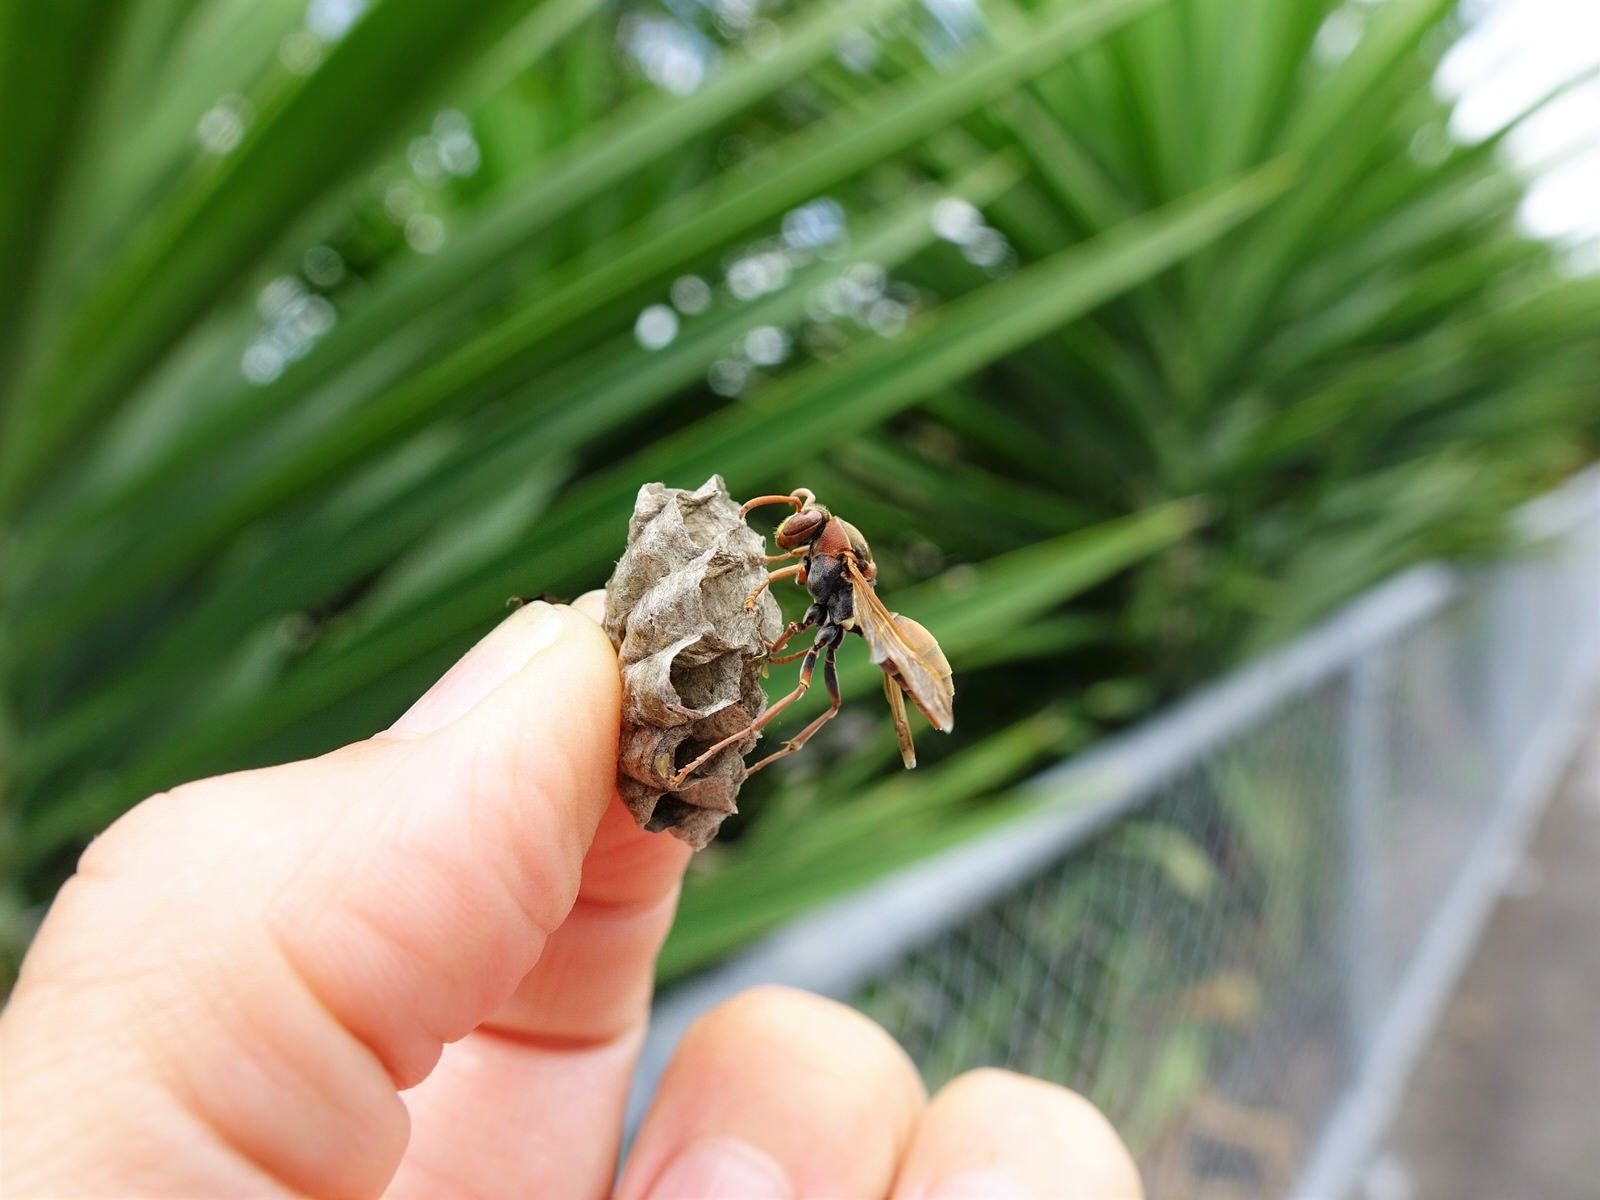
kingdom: Animalia
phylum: Arthropoda
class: Insecta
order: Hymenoptera
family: Eumenidae
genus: Polistes
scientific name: Polistes humilis
